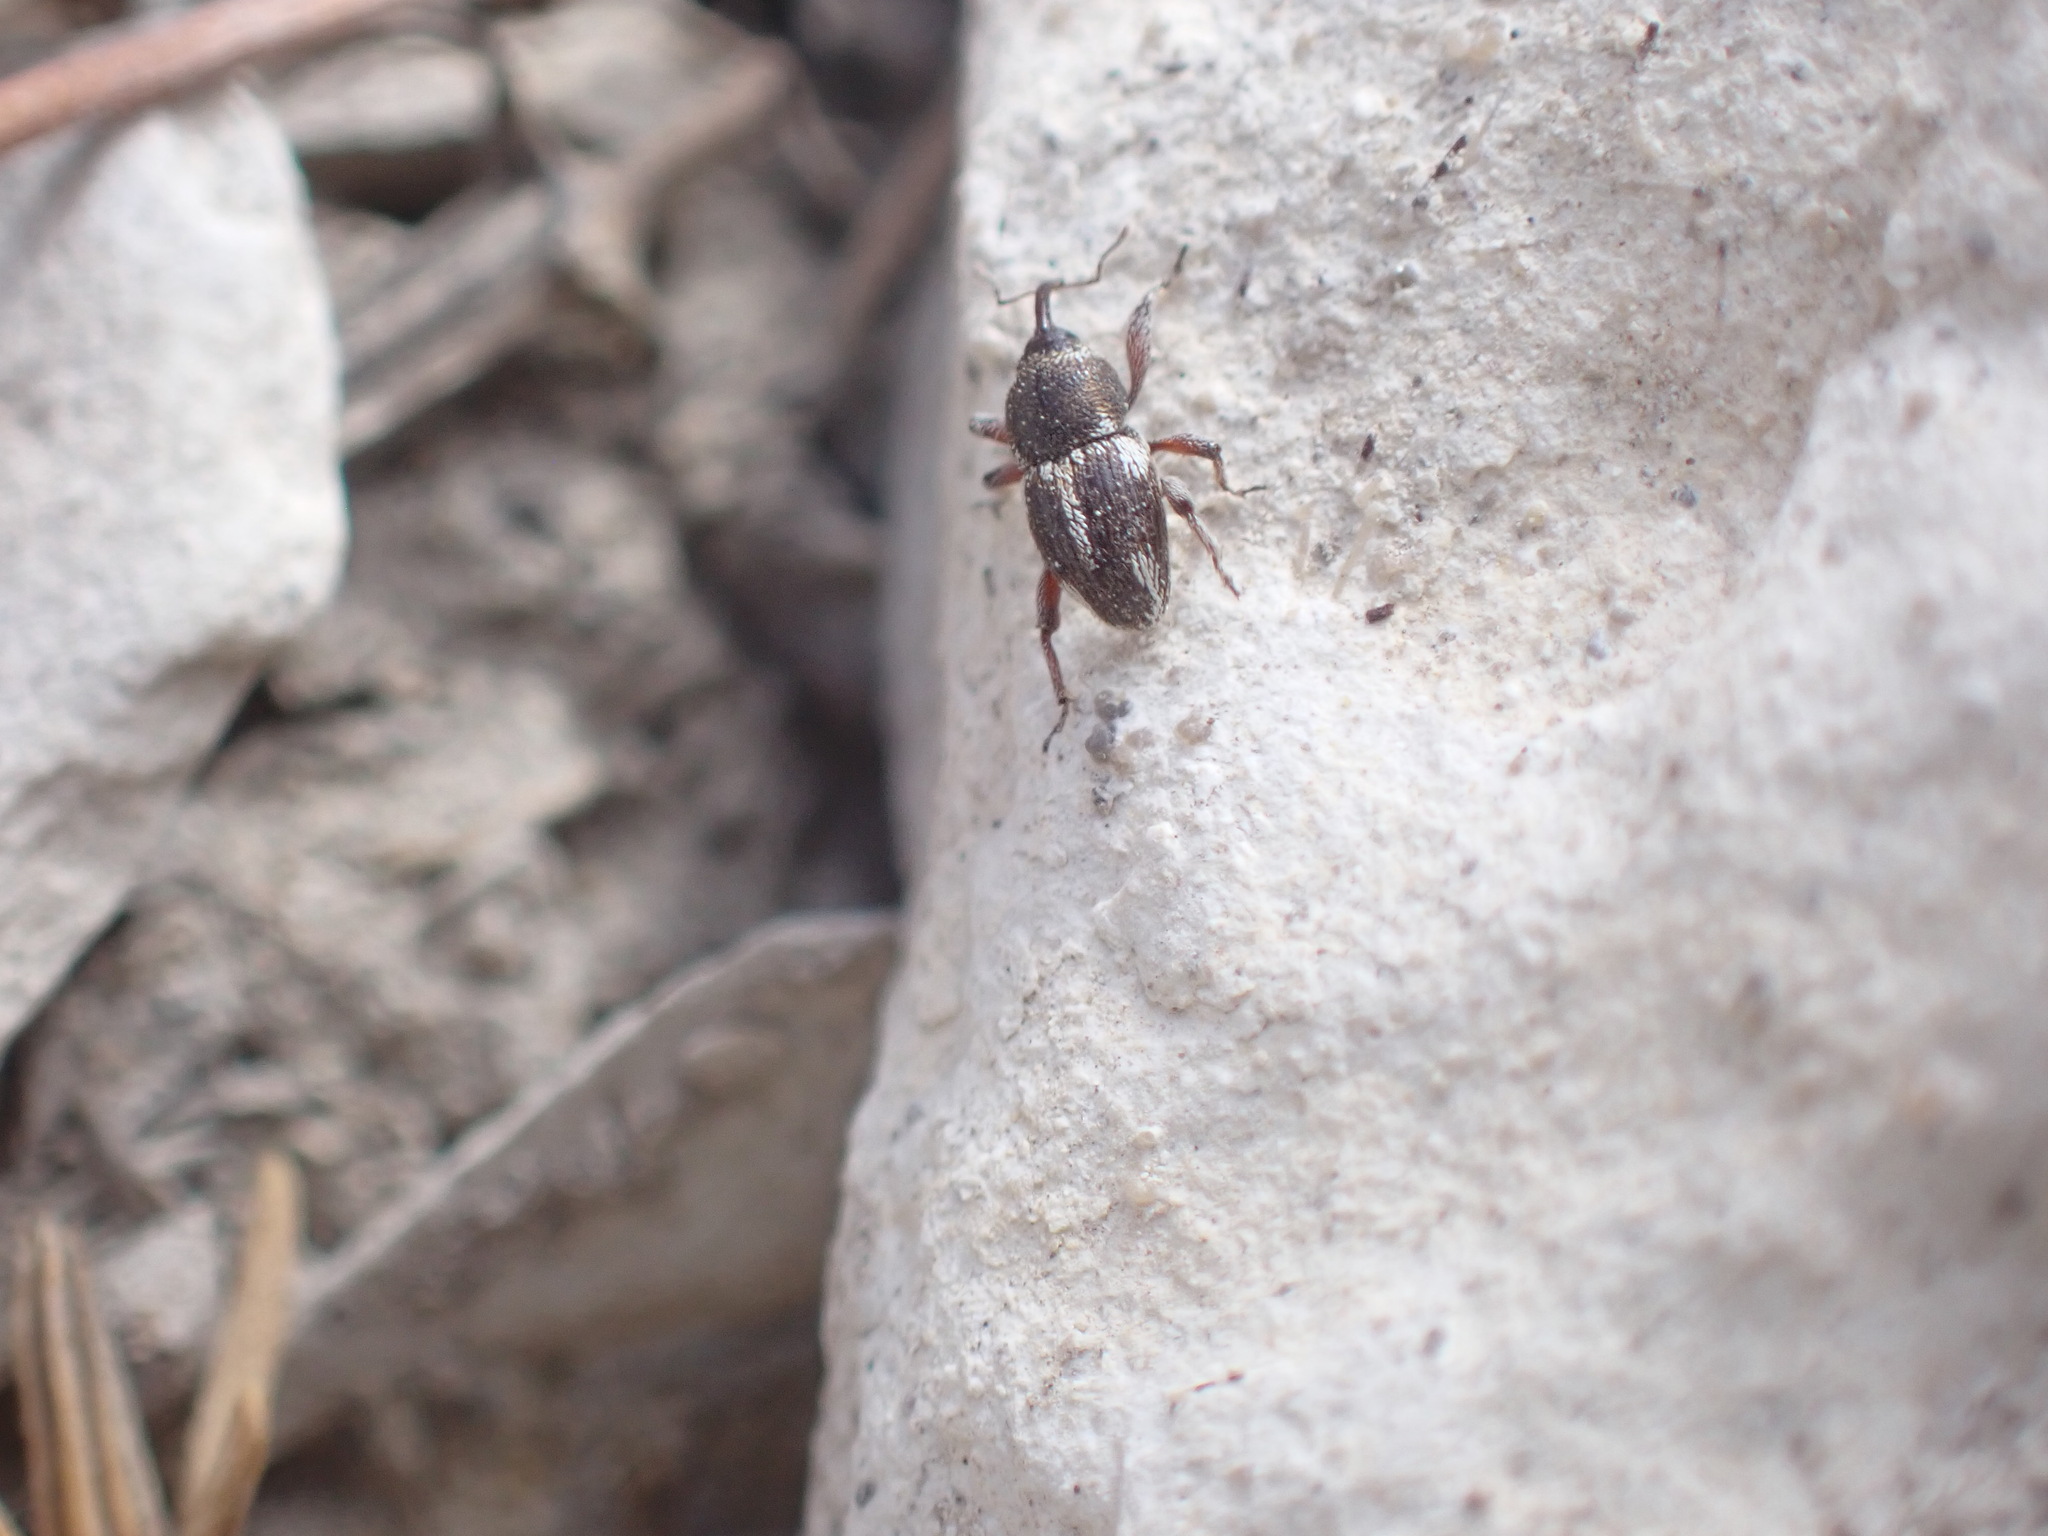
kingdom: Animalia
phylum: Arthropoda
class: Insecta
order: Coleoptera
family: Curculionidae
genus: Calandrinus
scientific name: Calandrinus grandicollis
